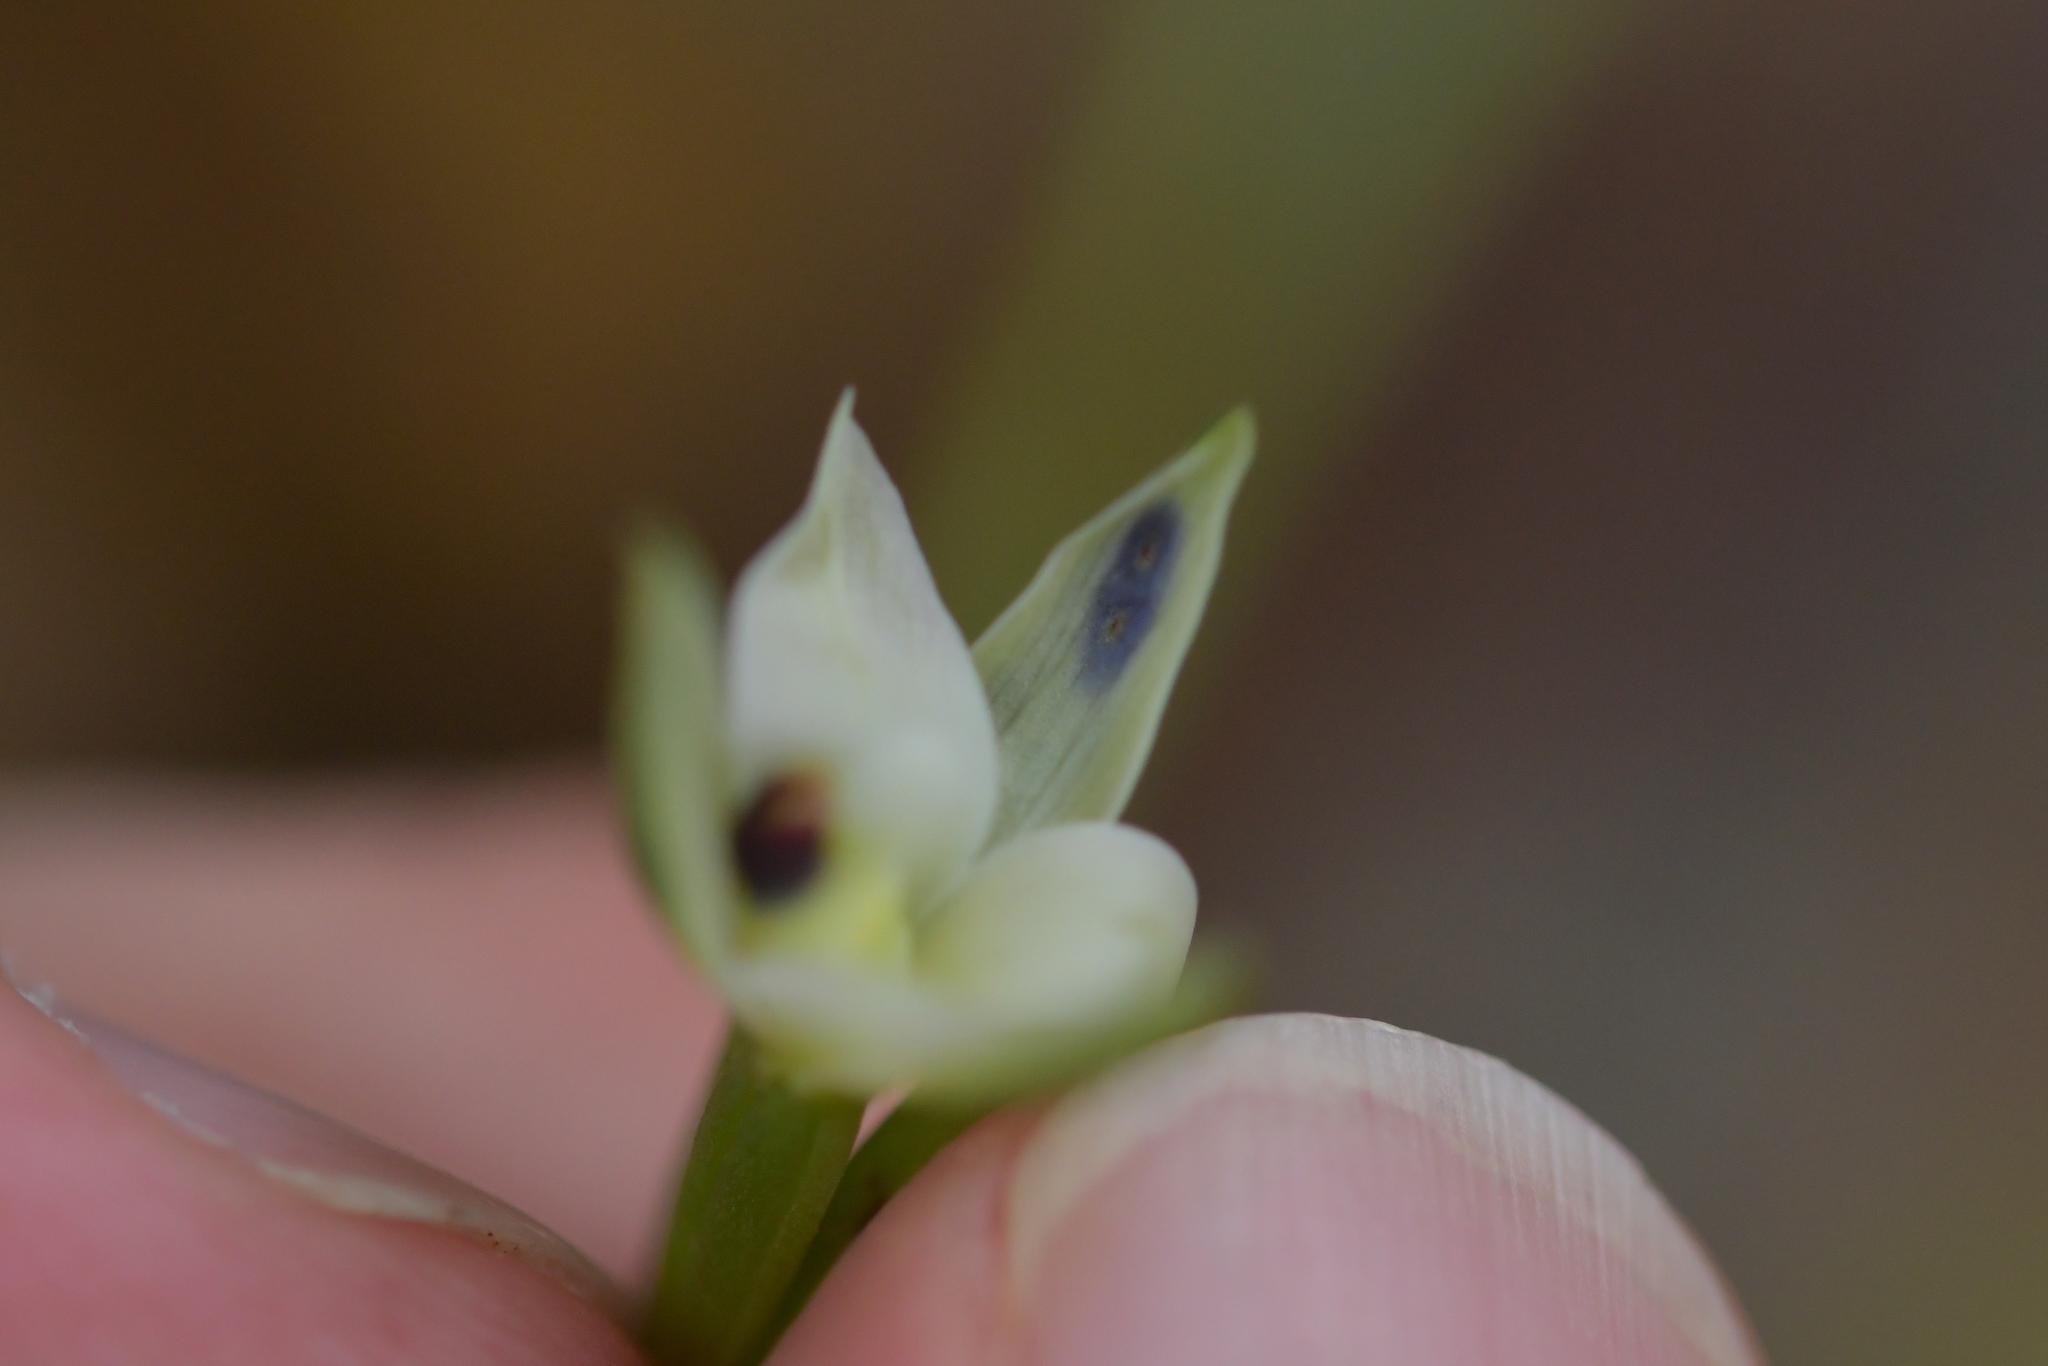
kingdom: Plantae
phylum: Tracheophyta
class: Liliopsida
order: Asparagales
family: Orchidaceae
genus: Thelymitra
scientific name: Thelymitra hatchii
